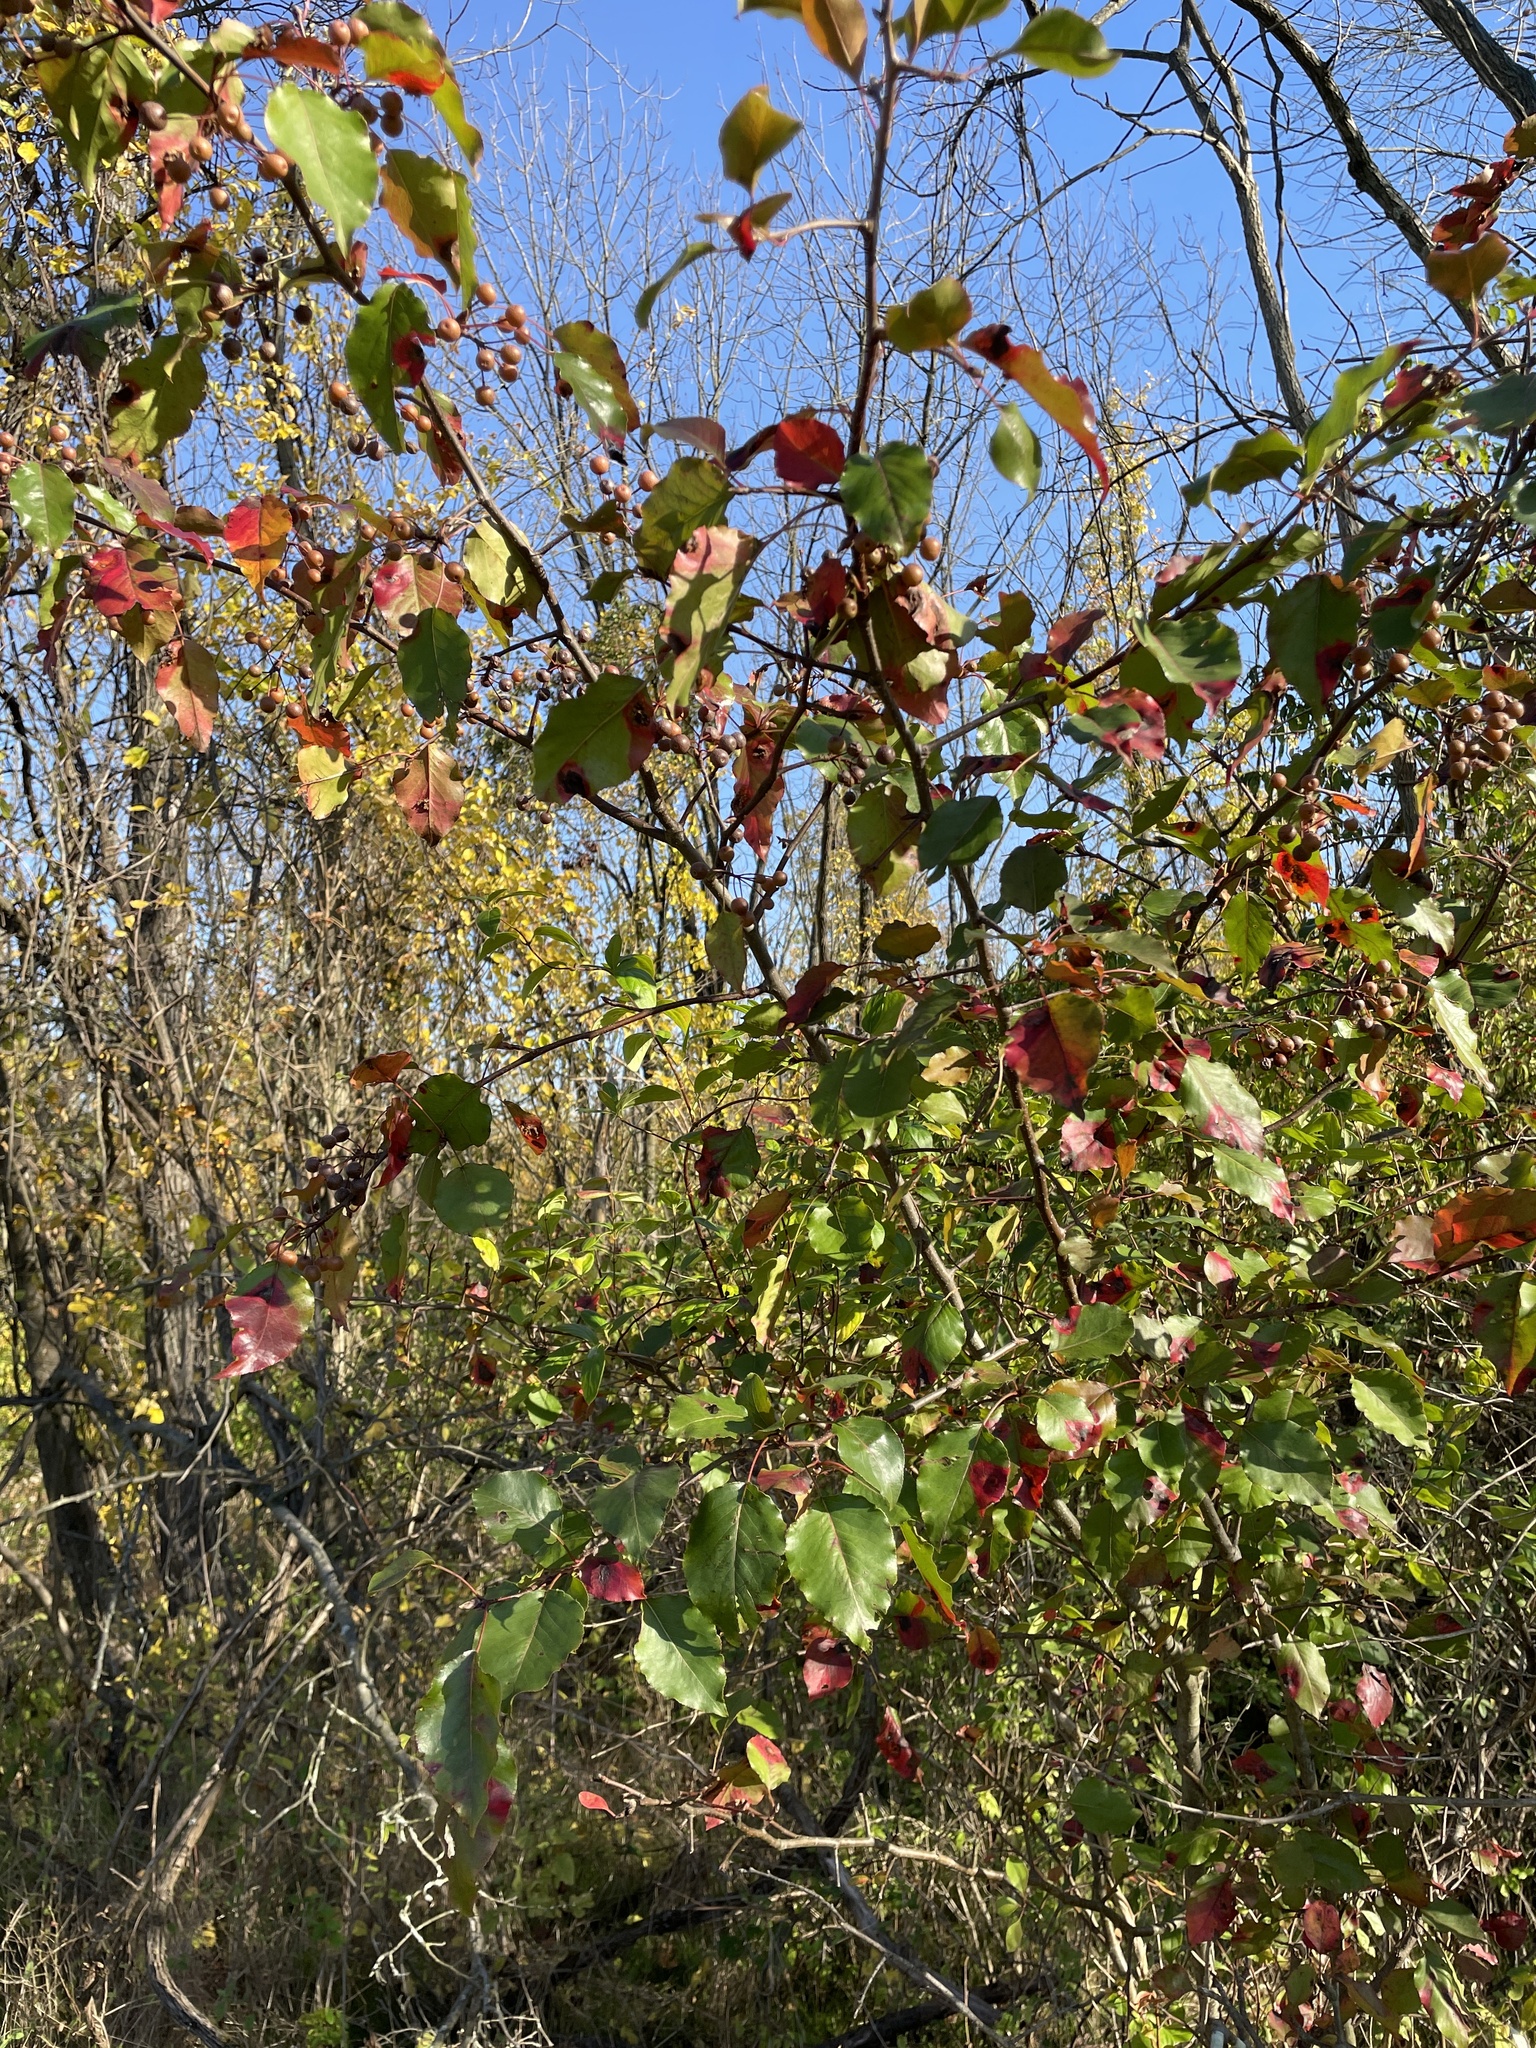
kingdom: Plantae
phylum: Tracheophyta
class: Magnoliopsida
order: Rosales
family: Rosaceae
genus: Pyrus
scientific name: Pyrus calleryana
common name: Callery pear
